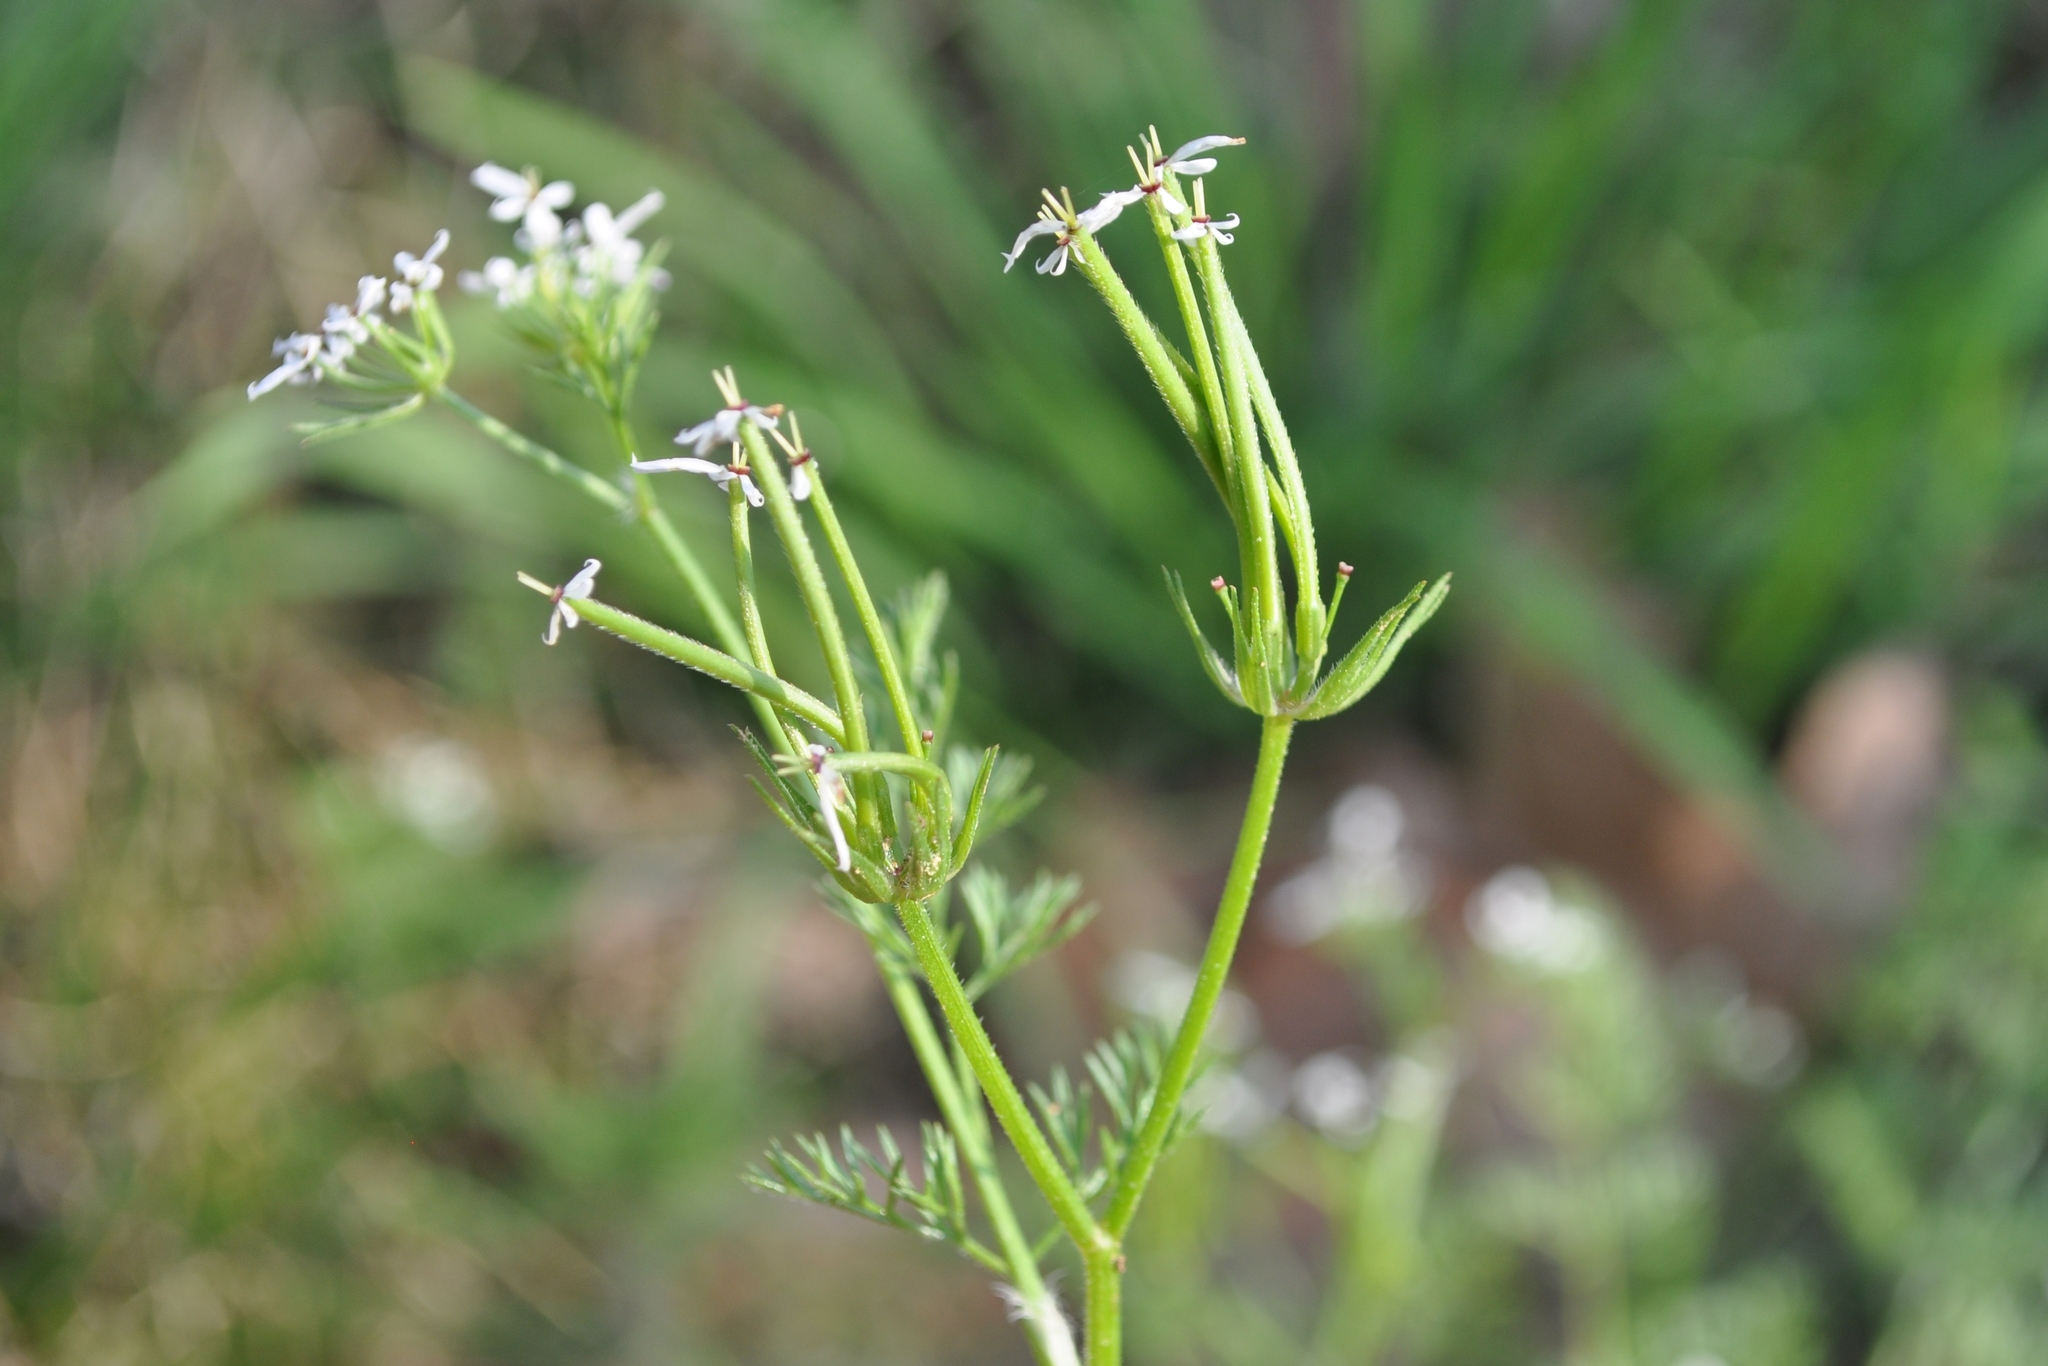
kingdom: Plantae
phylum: Tracheophyta
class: Magnoliopsida
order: Apiales
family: Apiaceae
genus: Scandix
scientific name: Scandix pecten-veneris
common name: Shepherd's-needle
